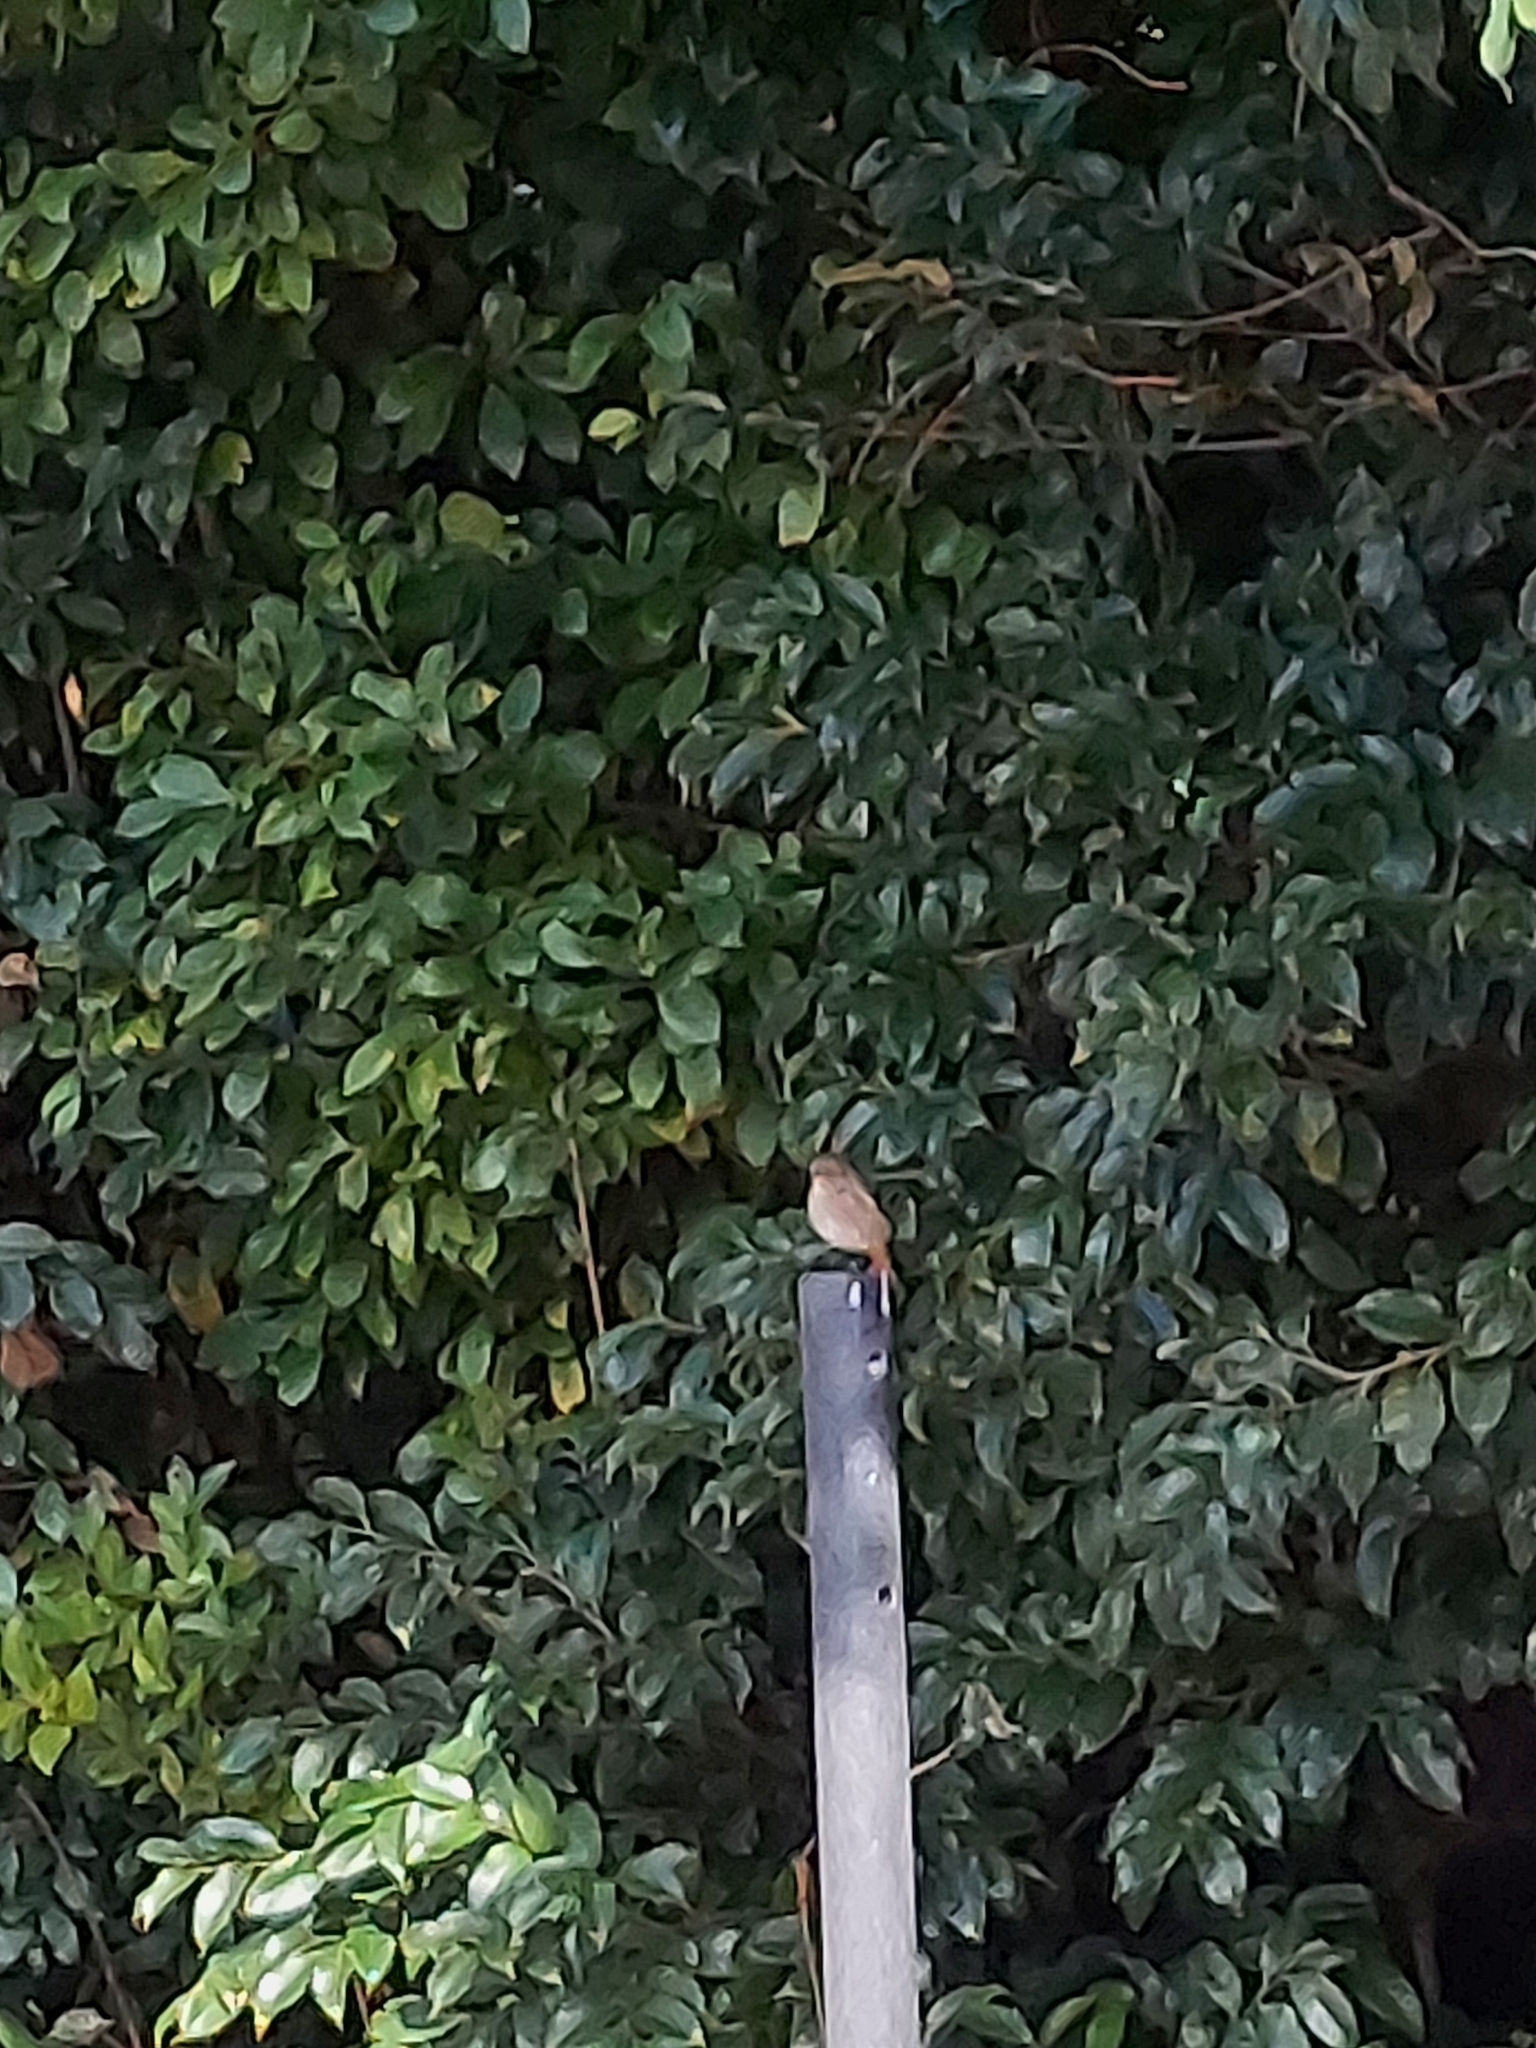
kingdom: Animalia
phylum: Chordata
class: Aves
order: Passeriformes
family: Muscicapidae
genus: Phoenicurus
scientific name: Phoenicurus auroreus
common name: Daurian redstart
